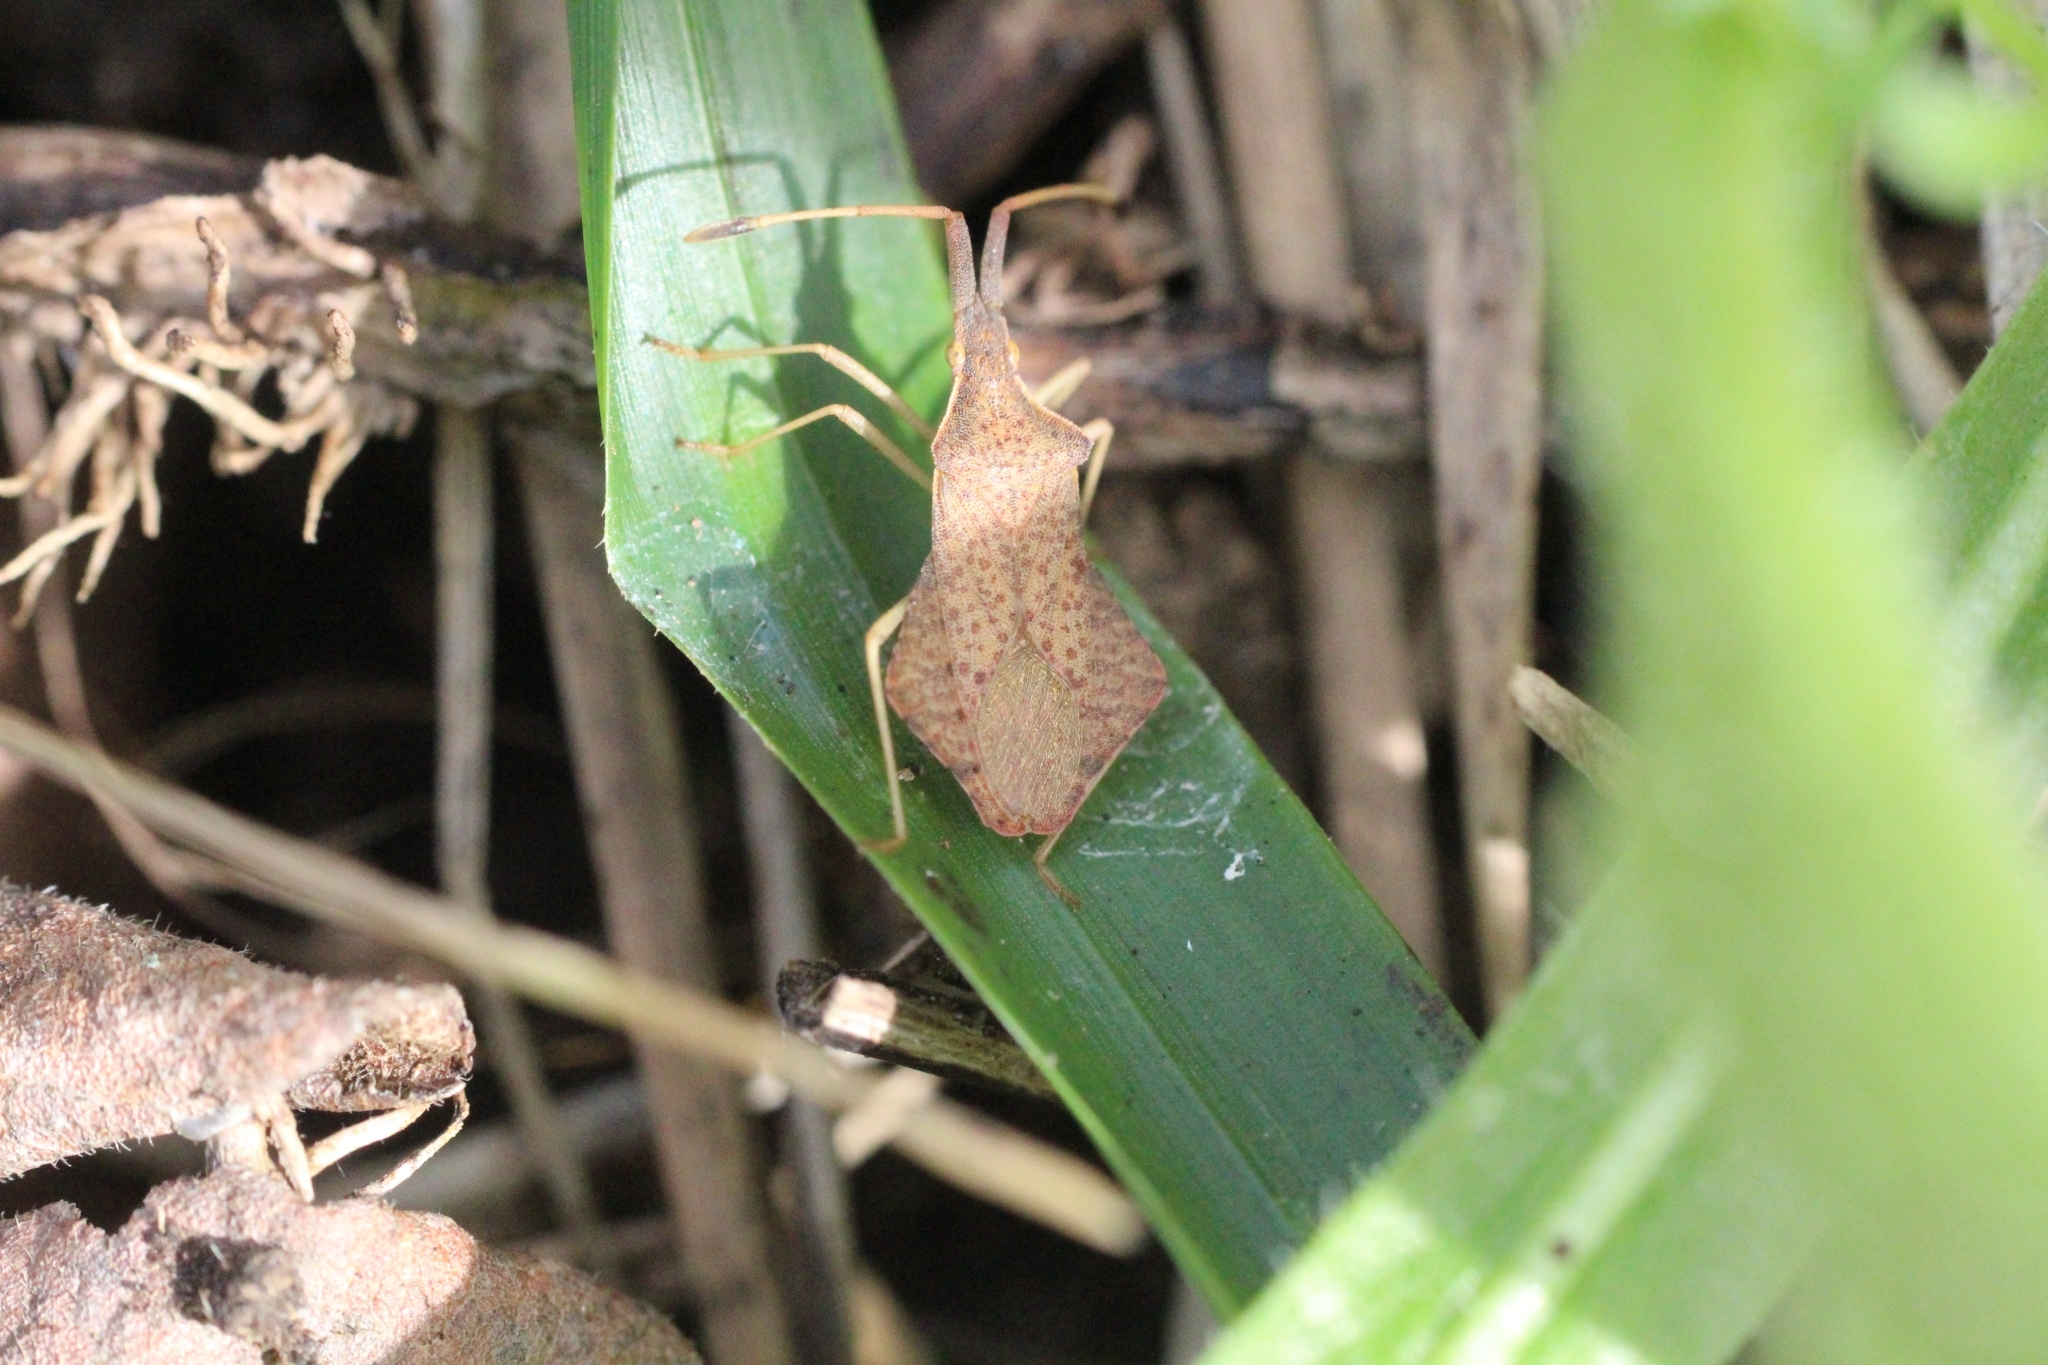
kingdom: Animalia
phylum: Arthropoda
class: Insecta
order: Hemiptera
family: Coreidae
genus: Syromastus
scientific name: Syromastus rhombeus
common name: Rhombic leatherbug
